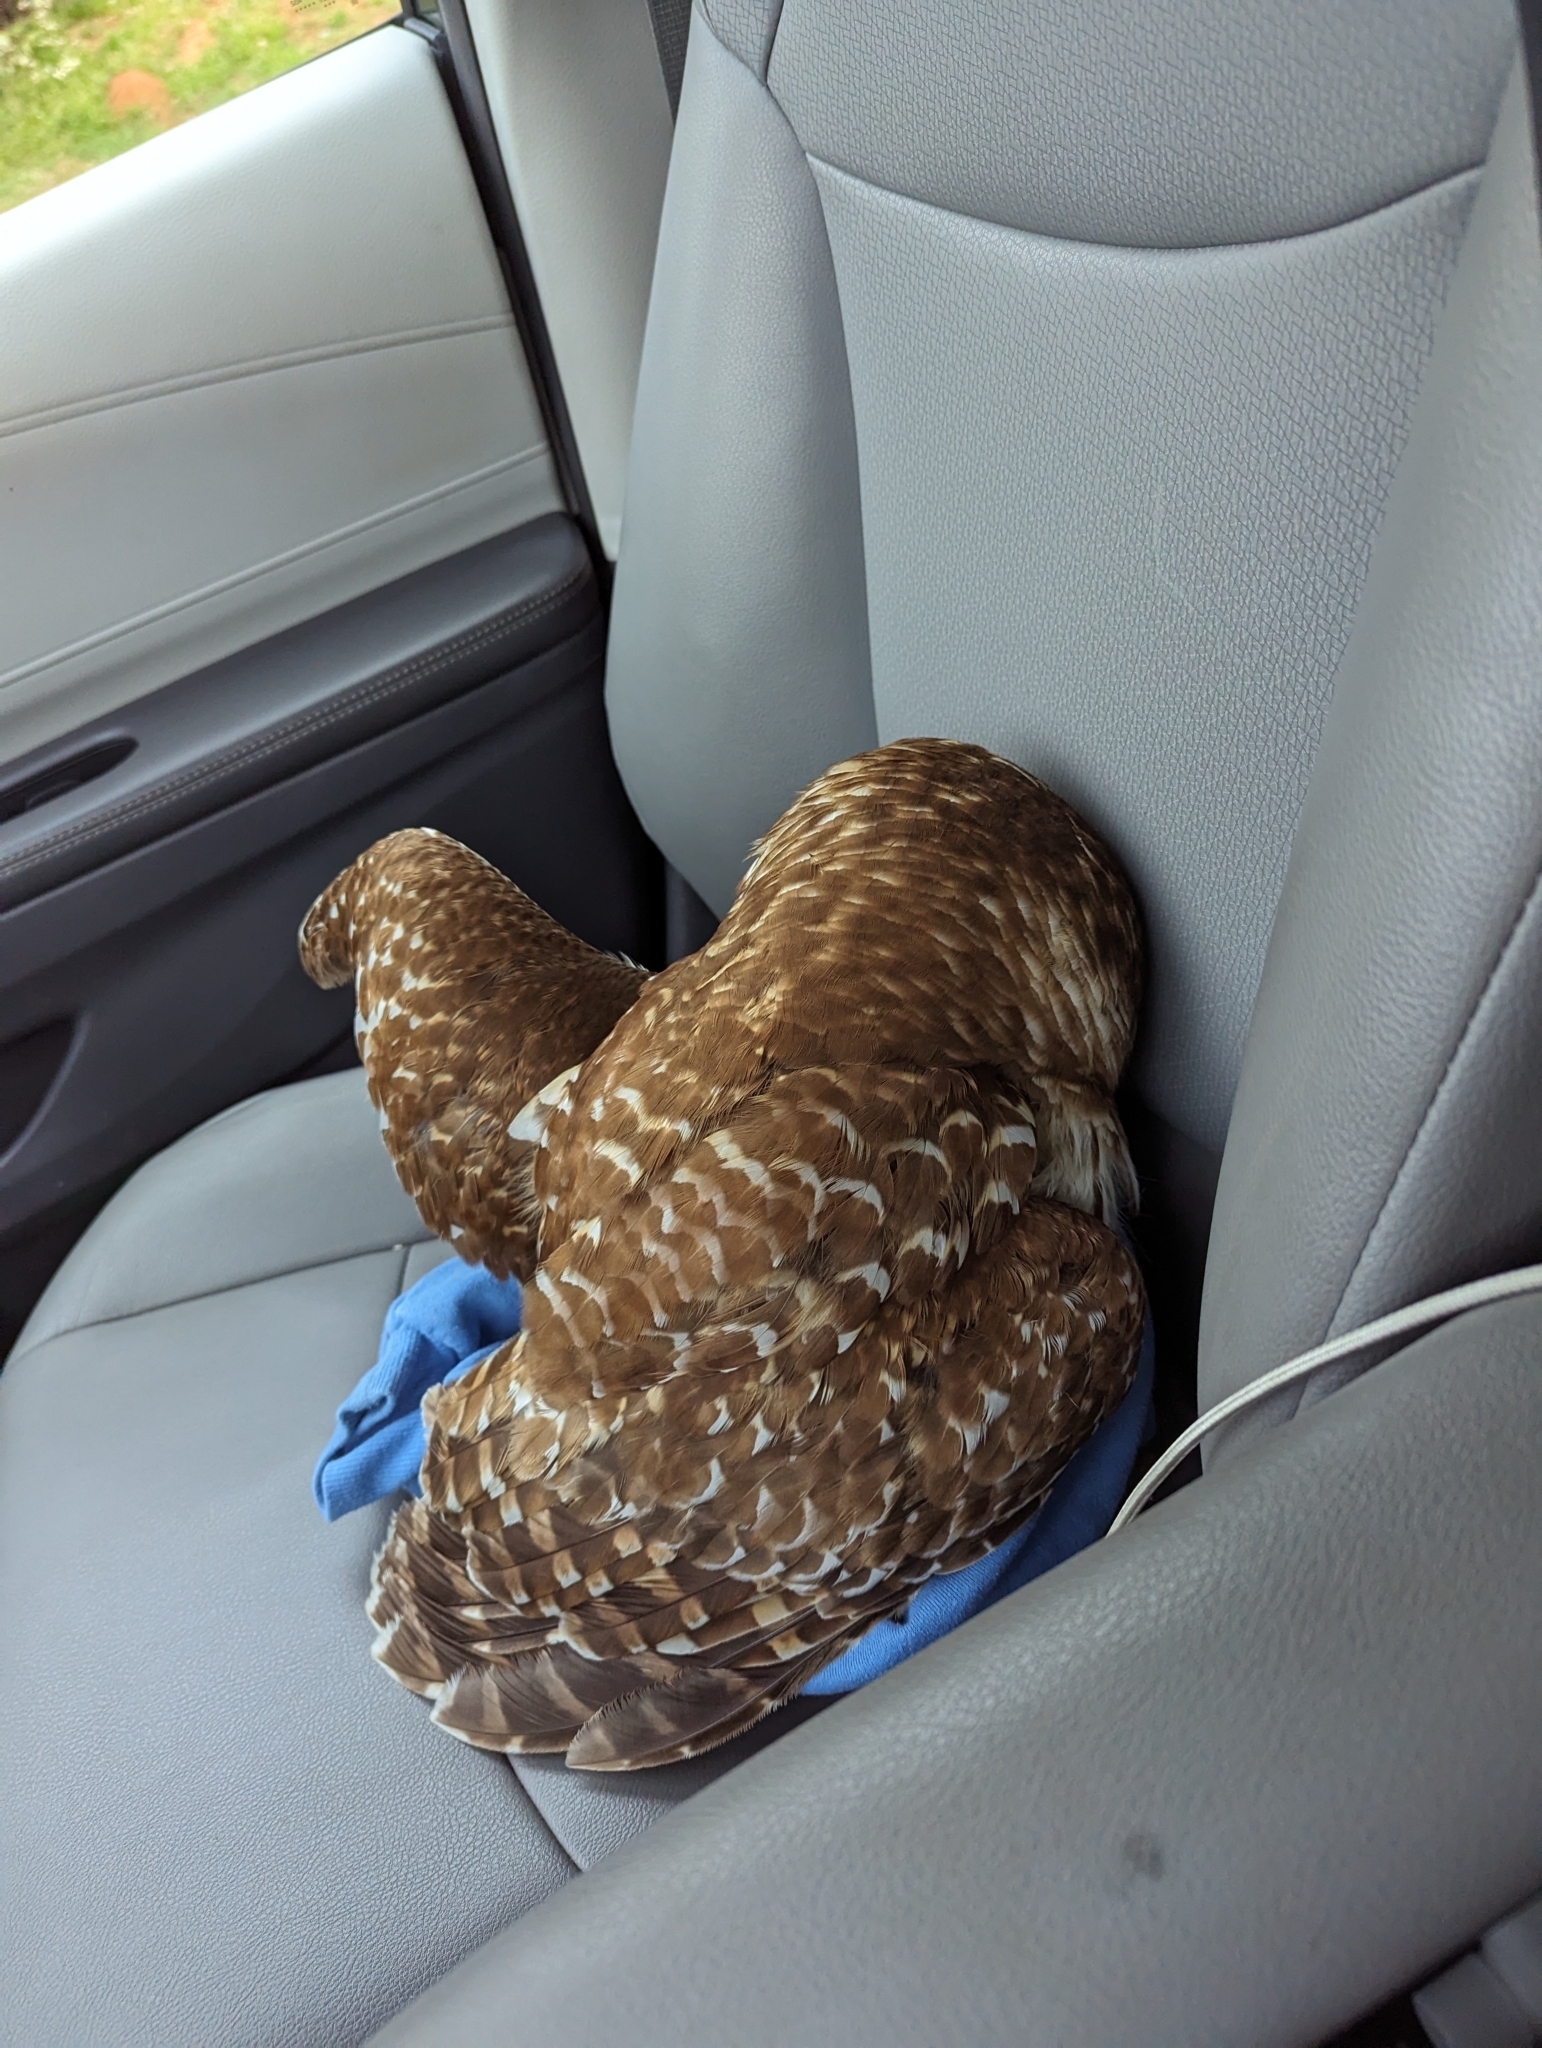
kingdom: Animalia
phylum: Chordata
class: Aves
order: Strigiformes
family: Strigidae
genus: Strix
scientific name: Strix varia
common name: Barred owl
